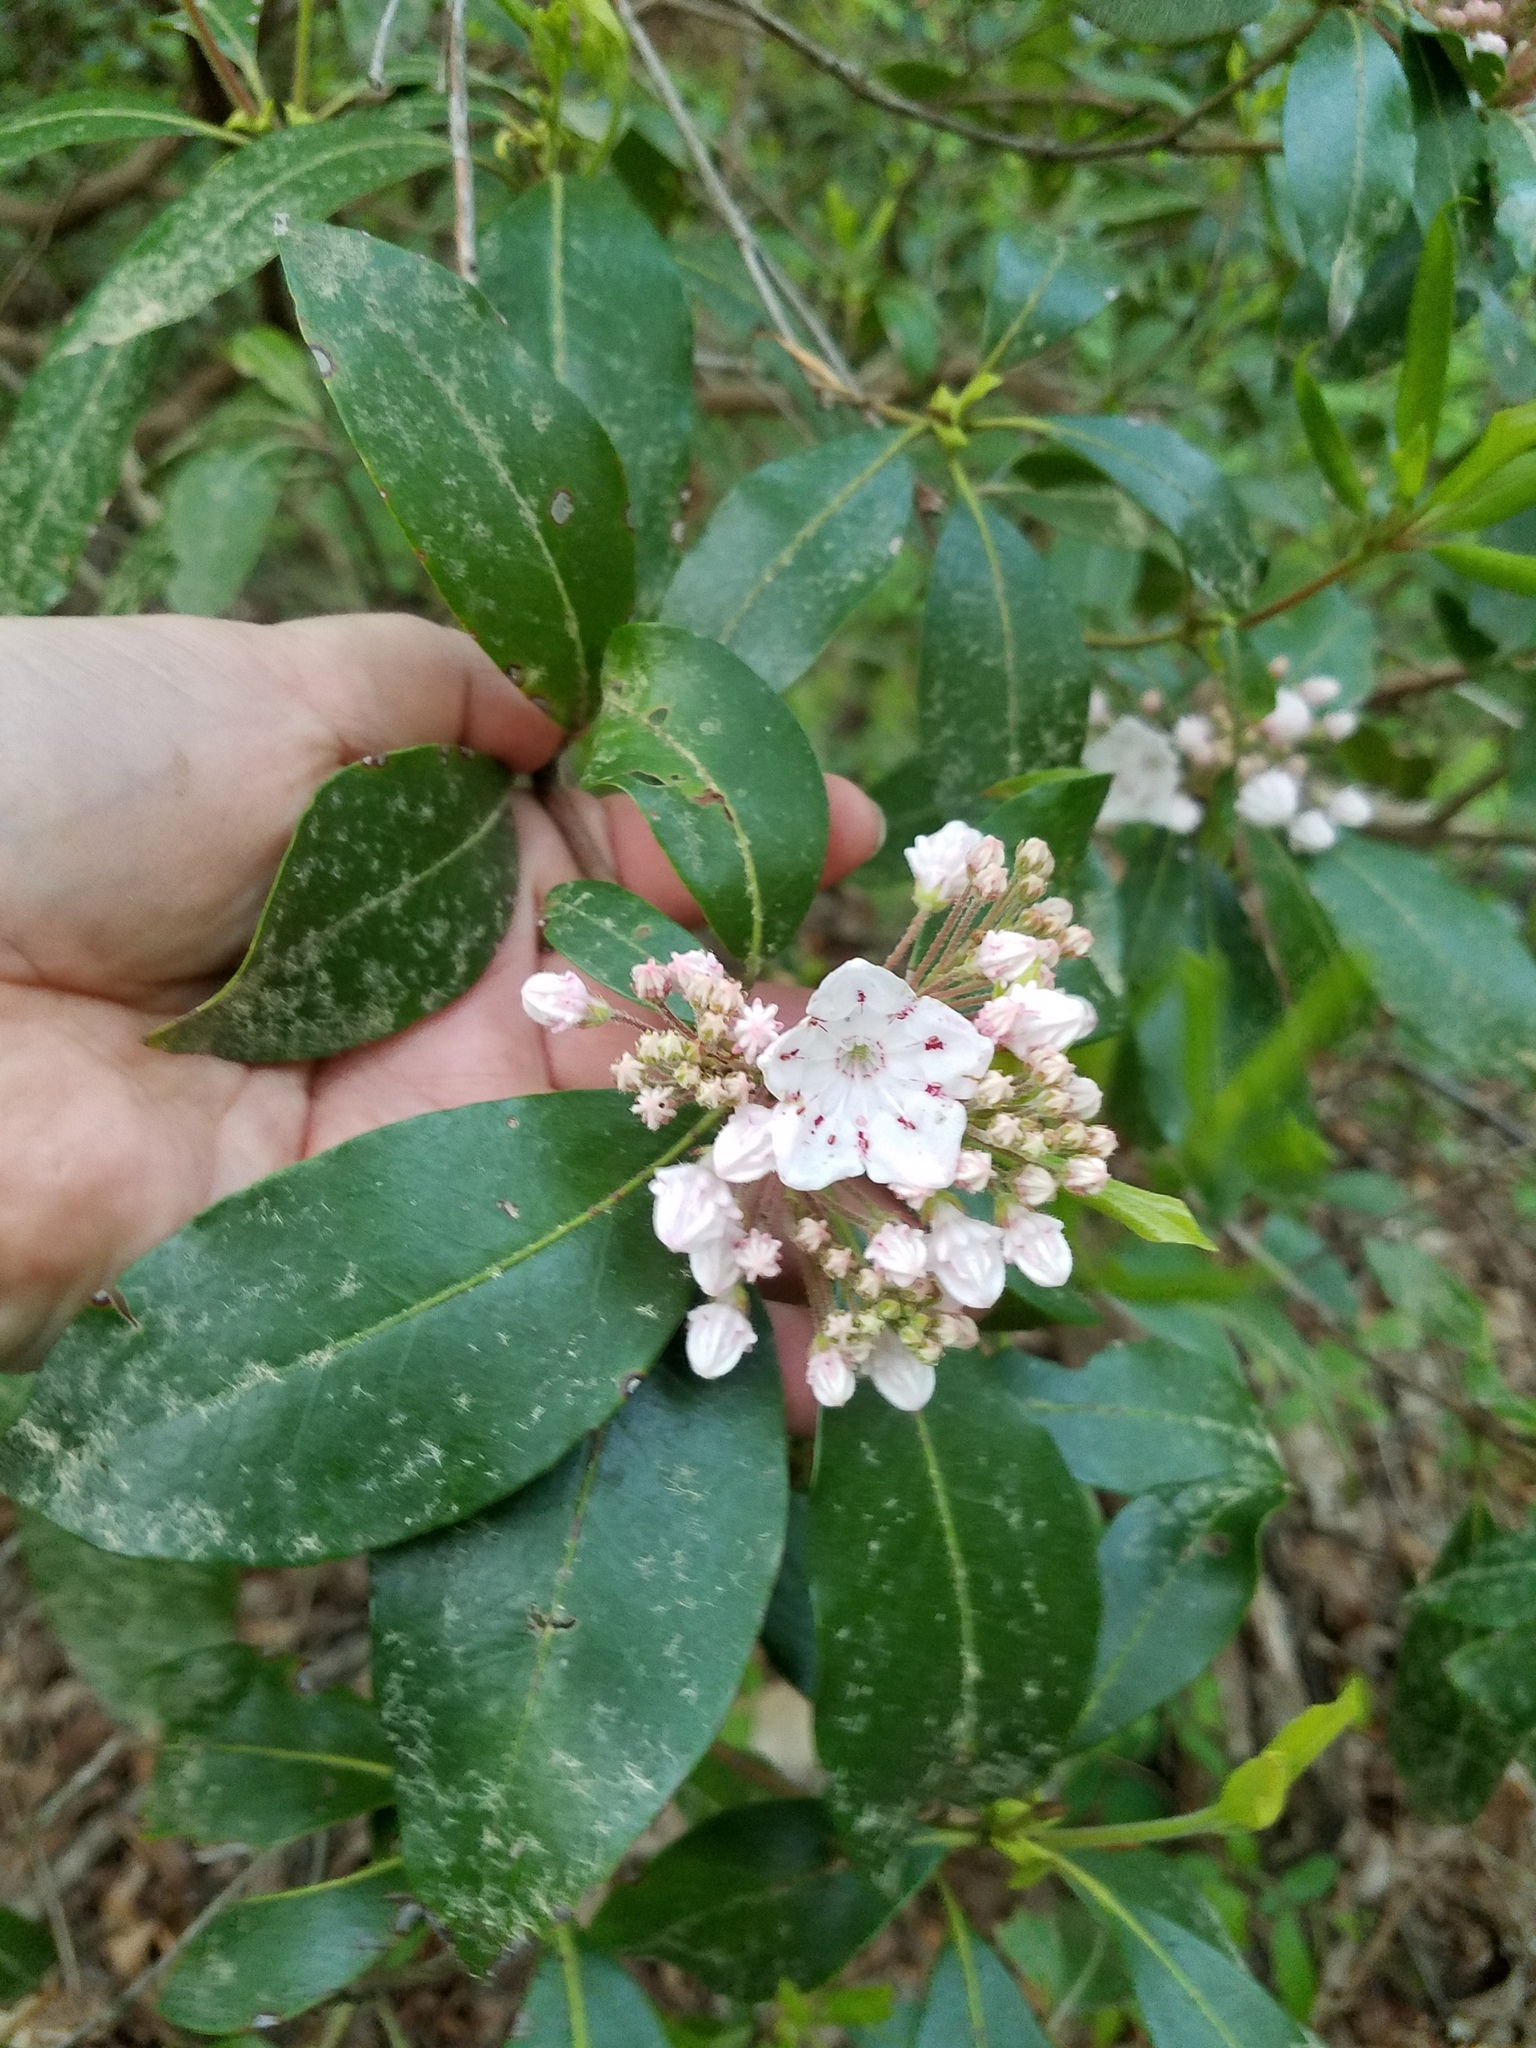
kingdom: Plantae
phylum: Tracheophyta
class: Magnoliopsida
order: Ericales
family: Ericaceae
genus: Kalmia
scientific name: Kalmia latifolia
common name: Mountain-laurel
